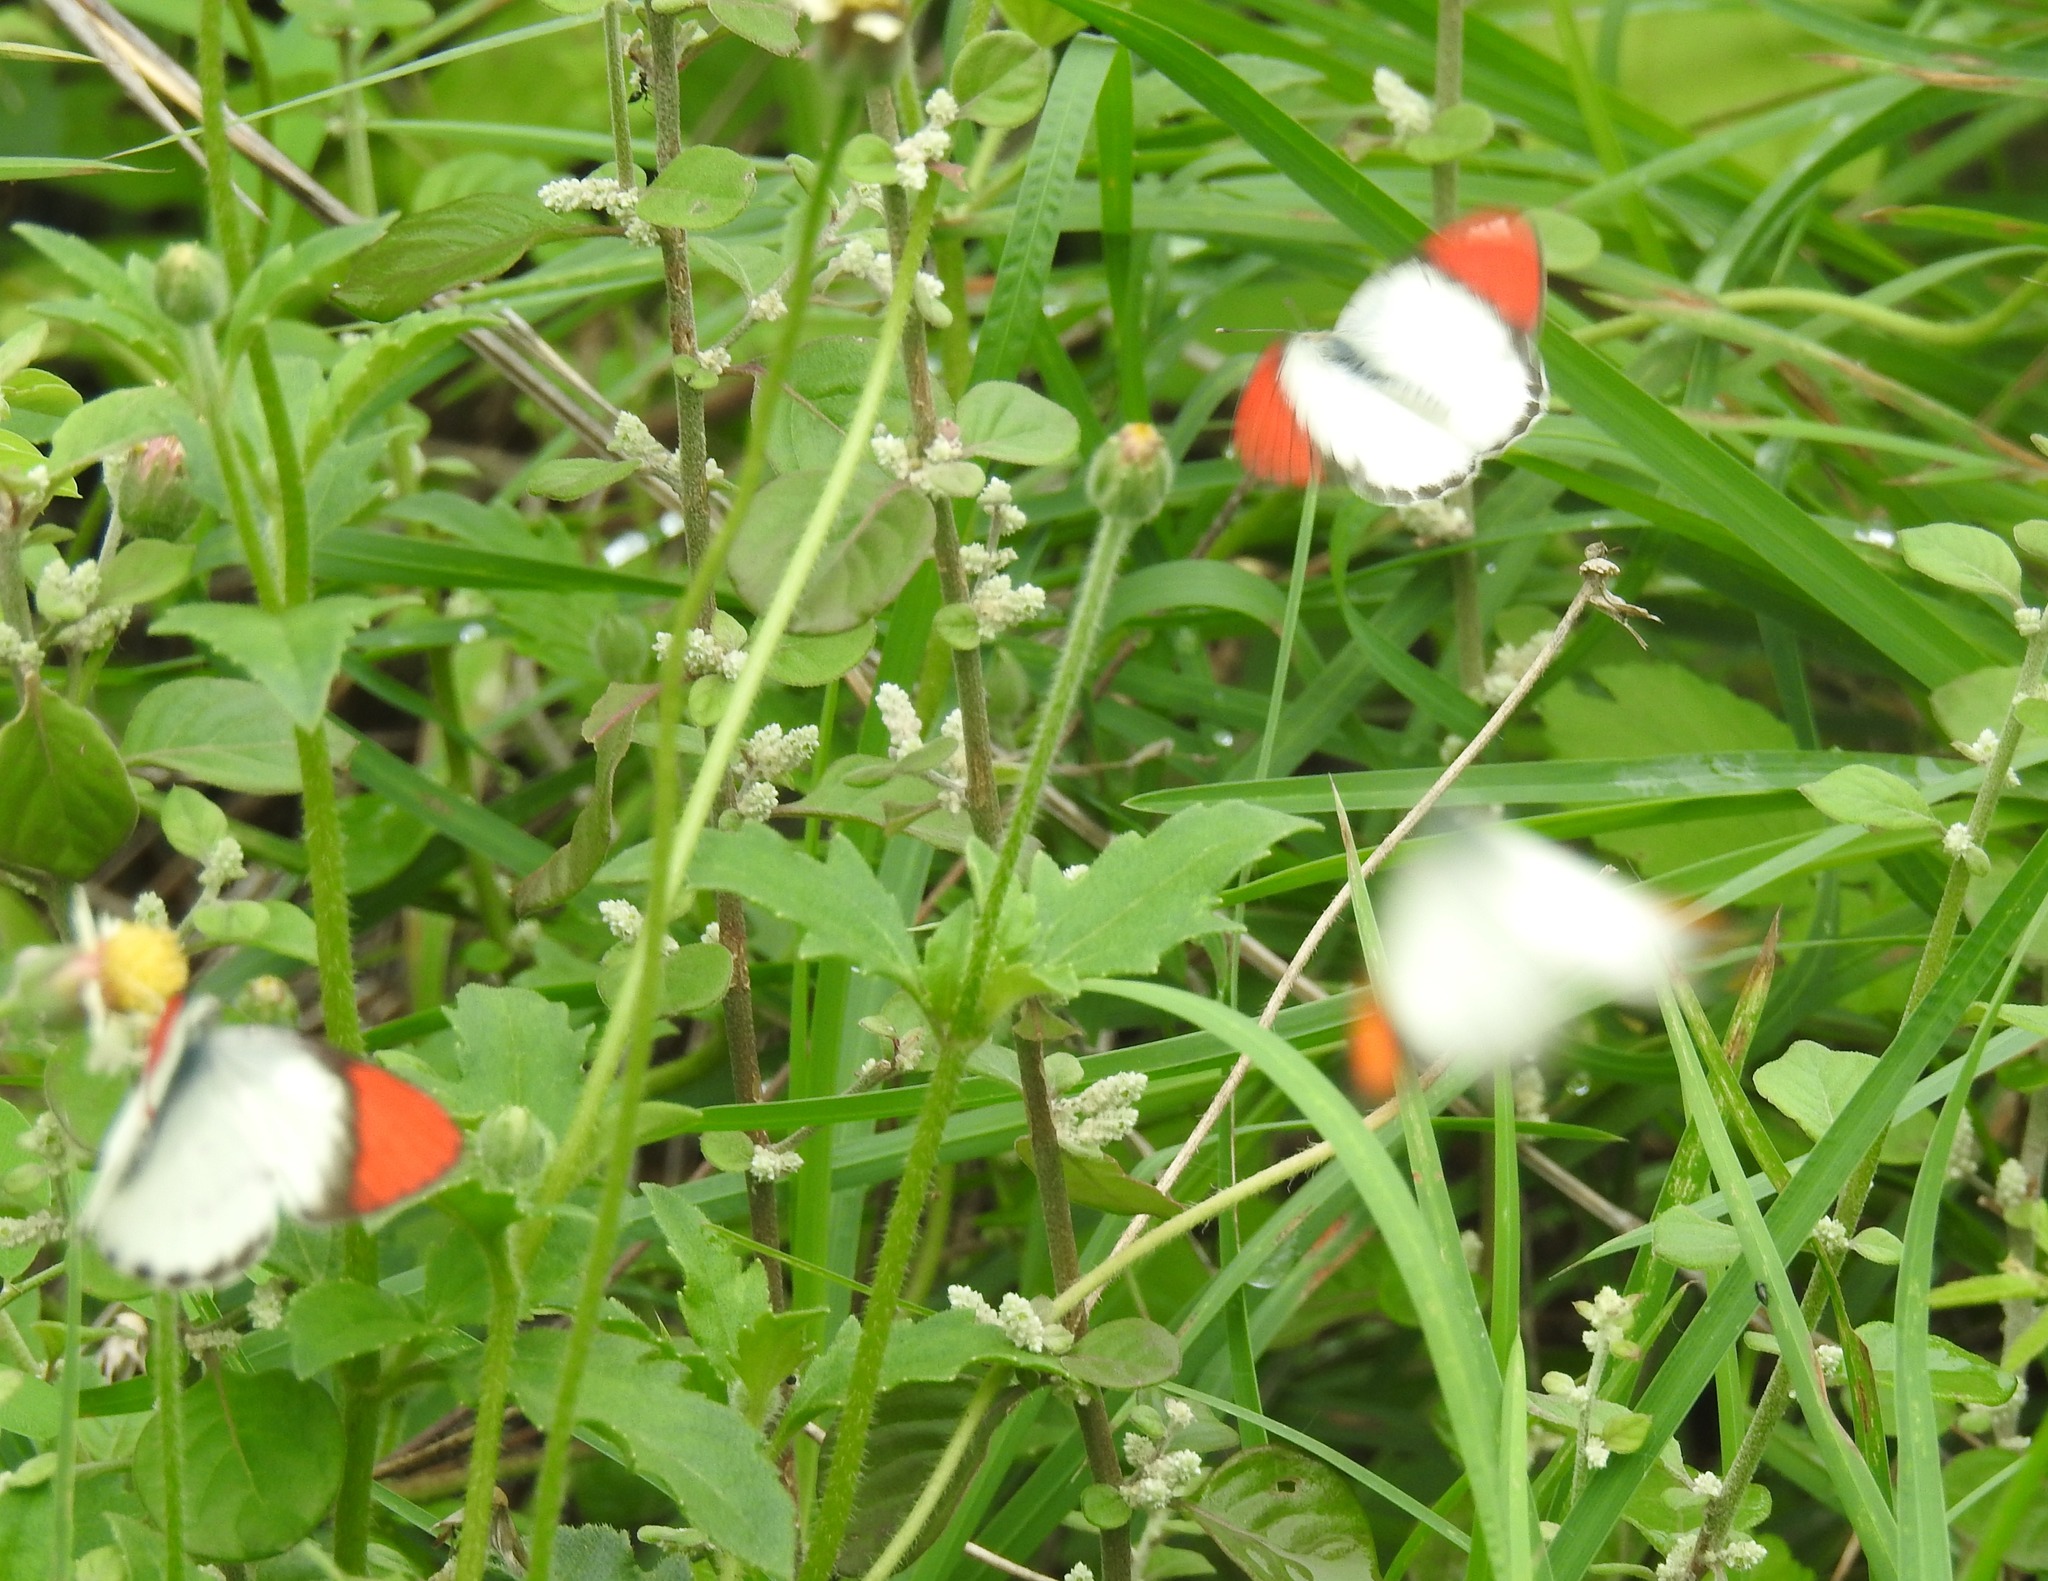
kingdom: Animalia
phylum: Arthropoda
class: Insecta
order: Lepidoptera
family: Pieridae
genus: Colotis
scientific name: Colotis danae
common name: Crimson tip
